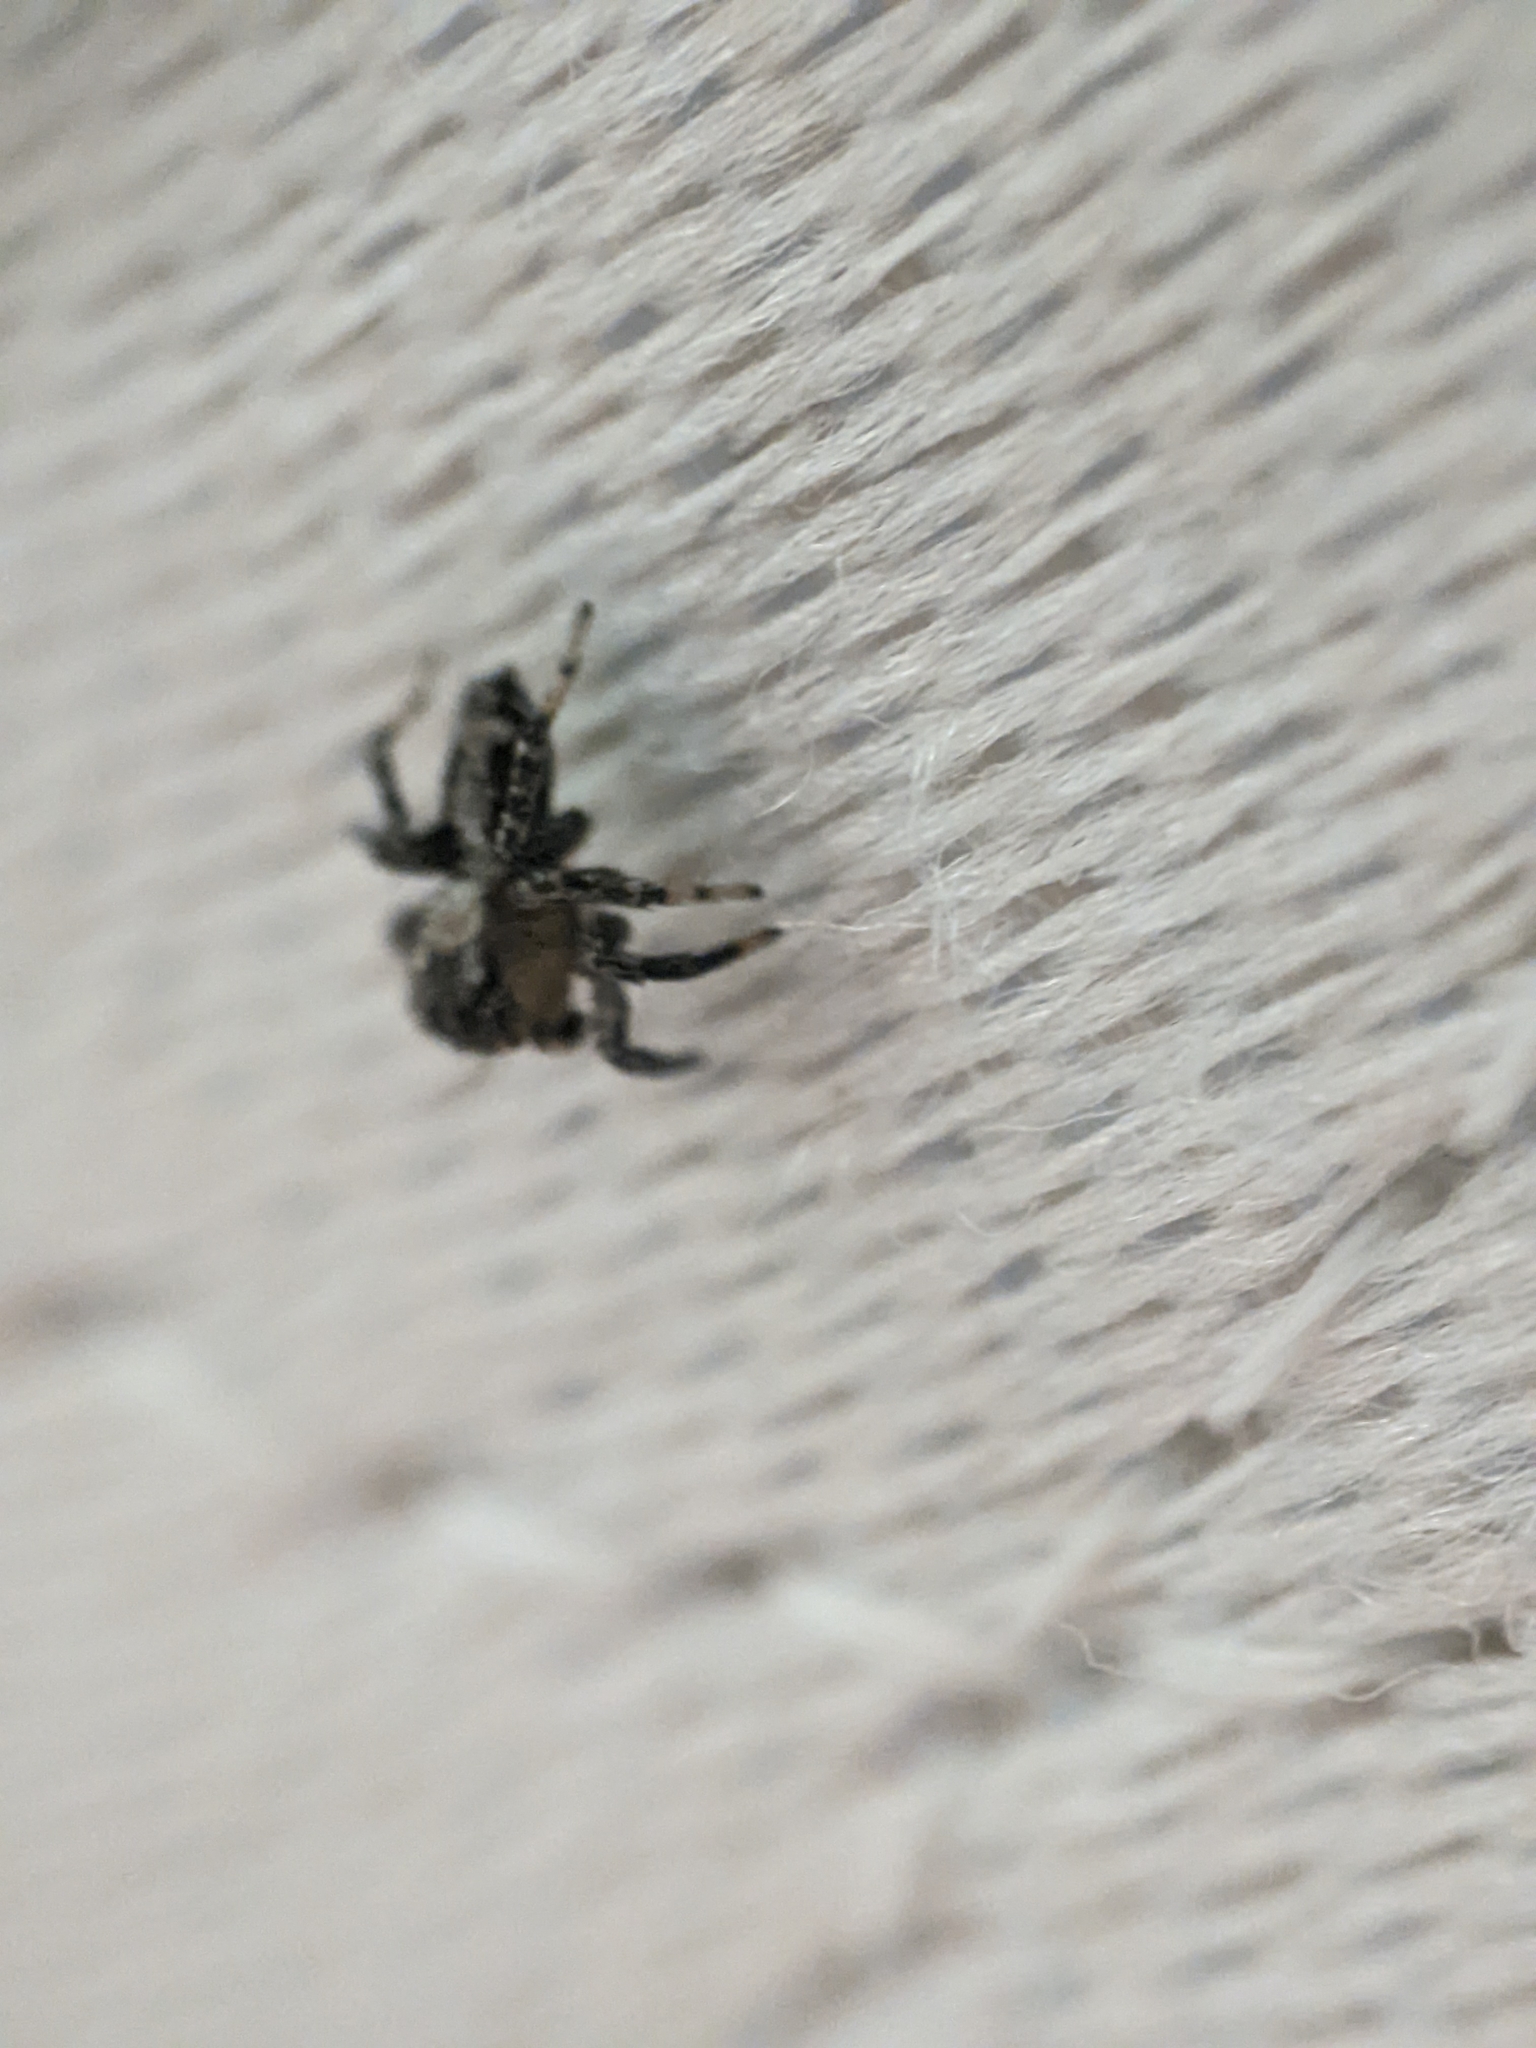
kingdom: Animalia
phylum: Arthropoda
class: Arachnida
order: Araneae
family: Salticidae
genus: Naphrys
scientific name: Naphrys pulex
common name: Flea jumping spider
